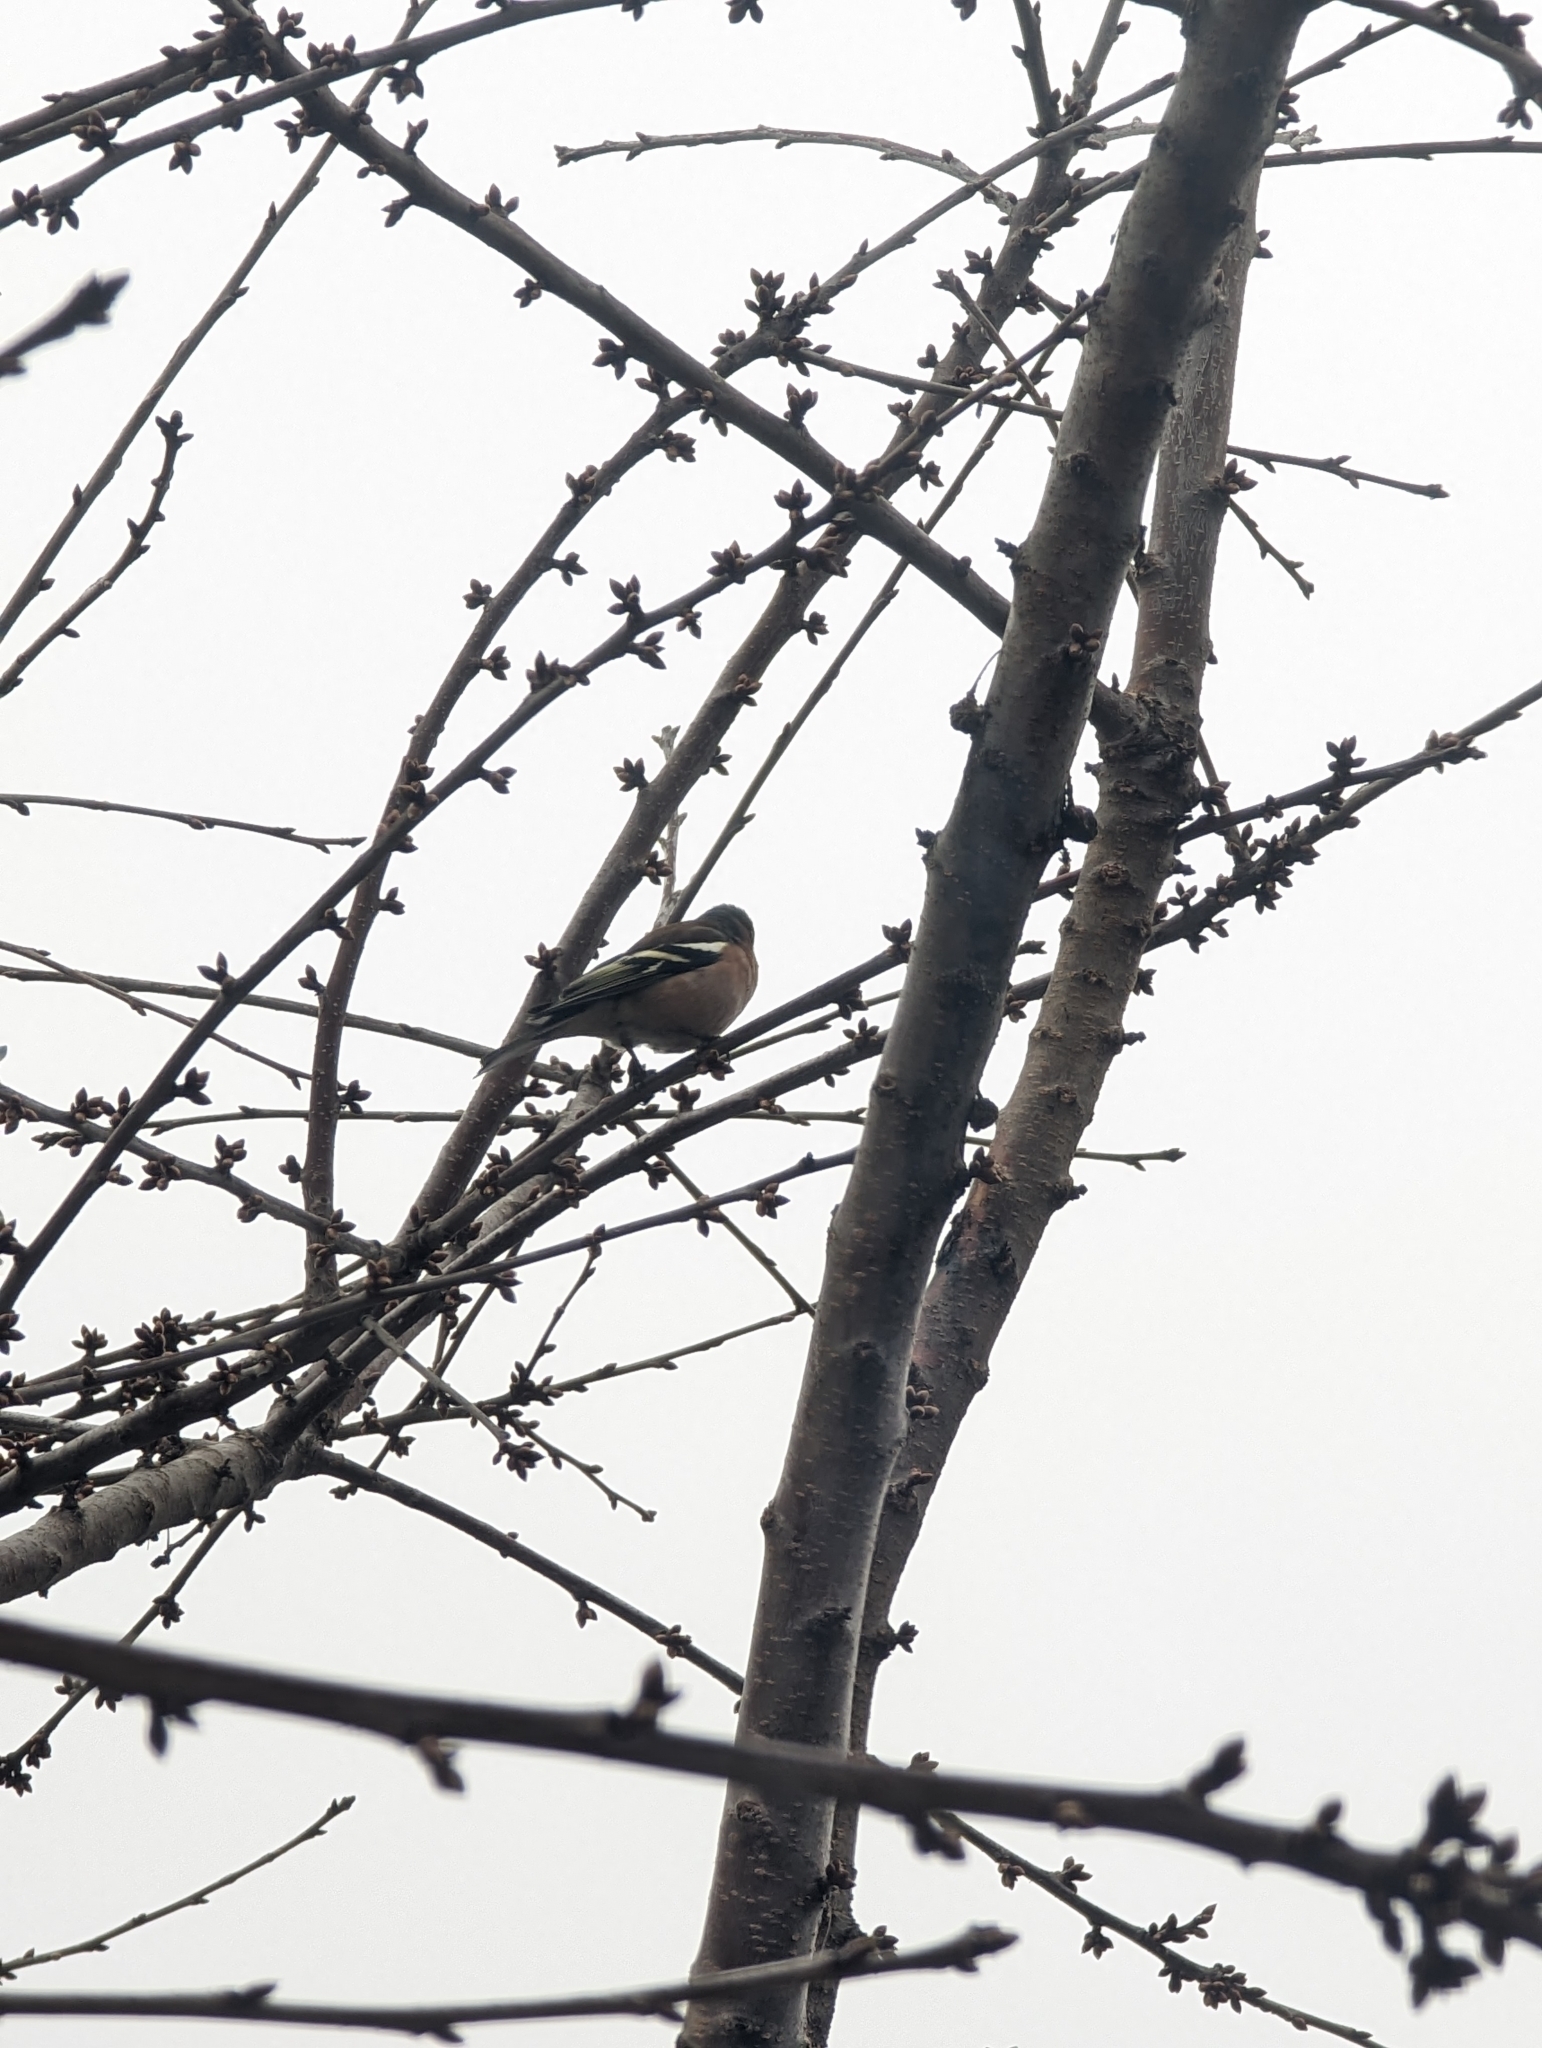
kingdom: Animalia
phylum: Chordata
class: Aves
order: Passeriformes
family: Fringillidae
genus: Fringilla
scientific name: Fringilla coelebs
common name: Common chaffinch
